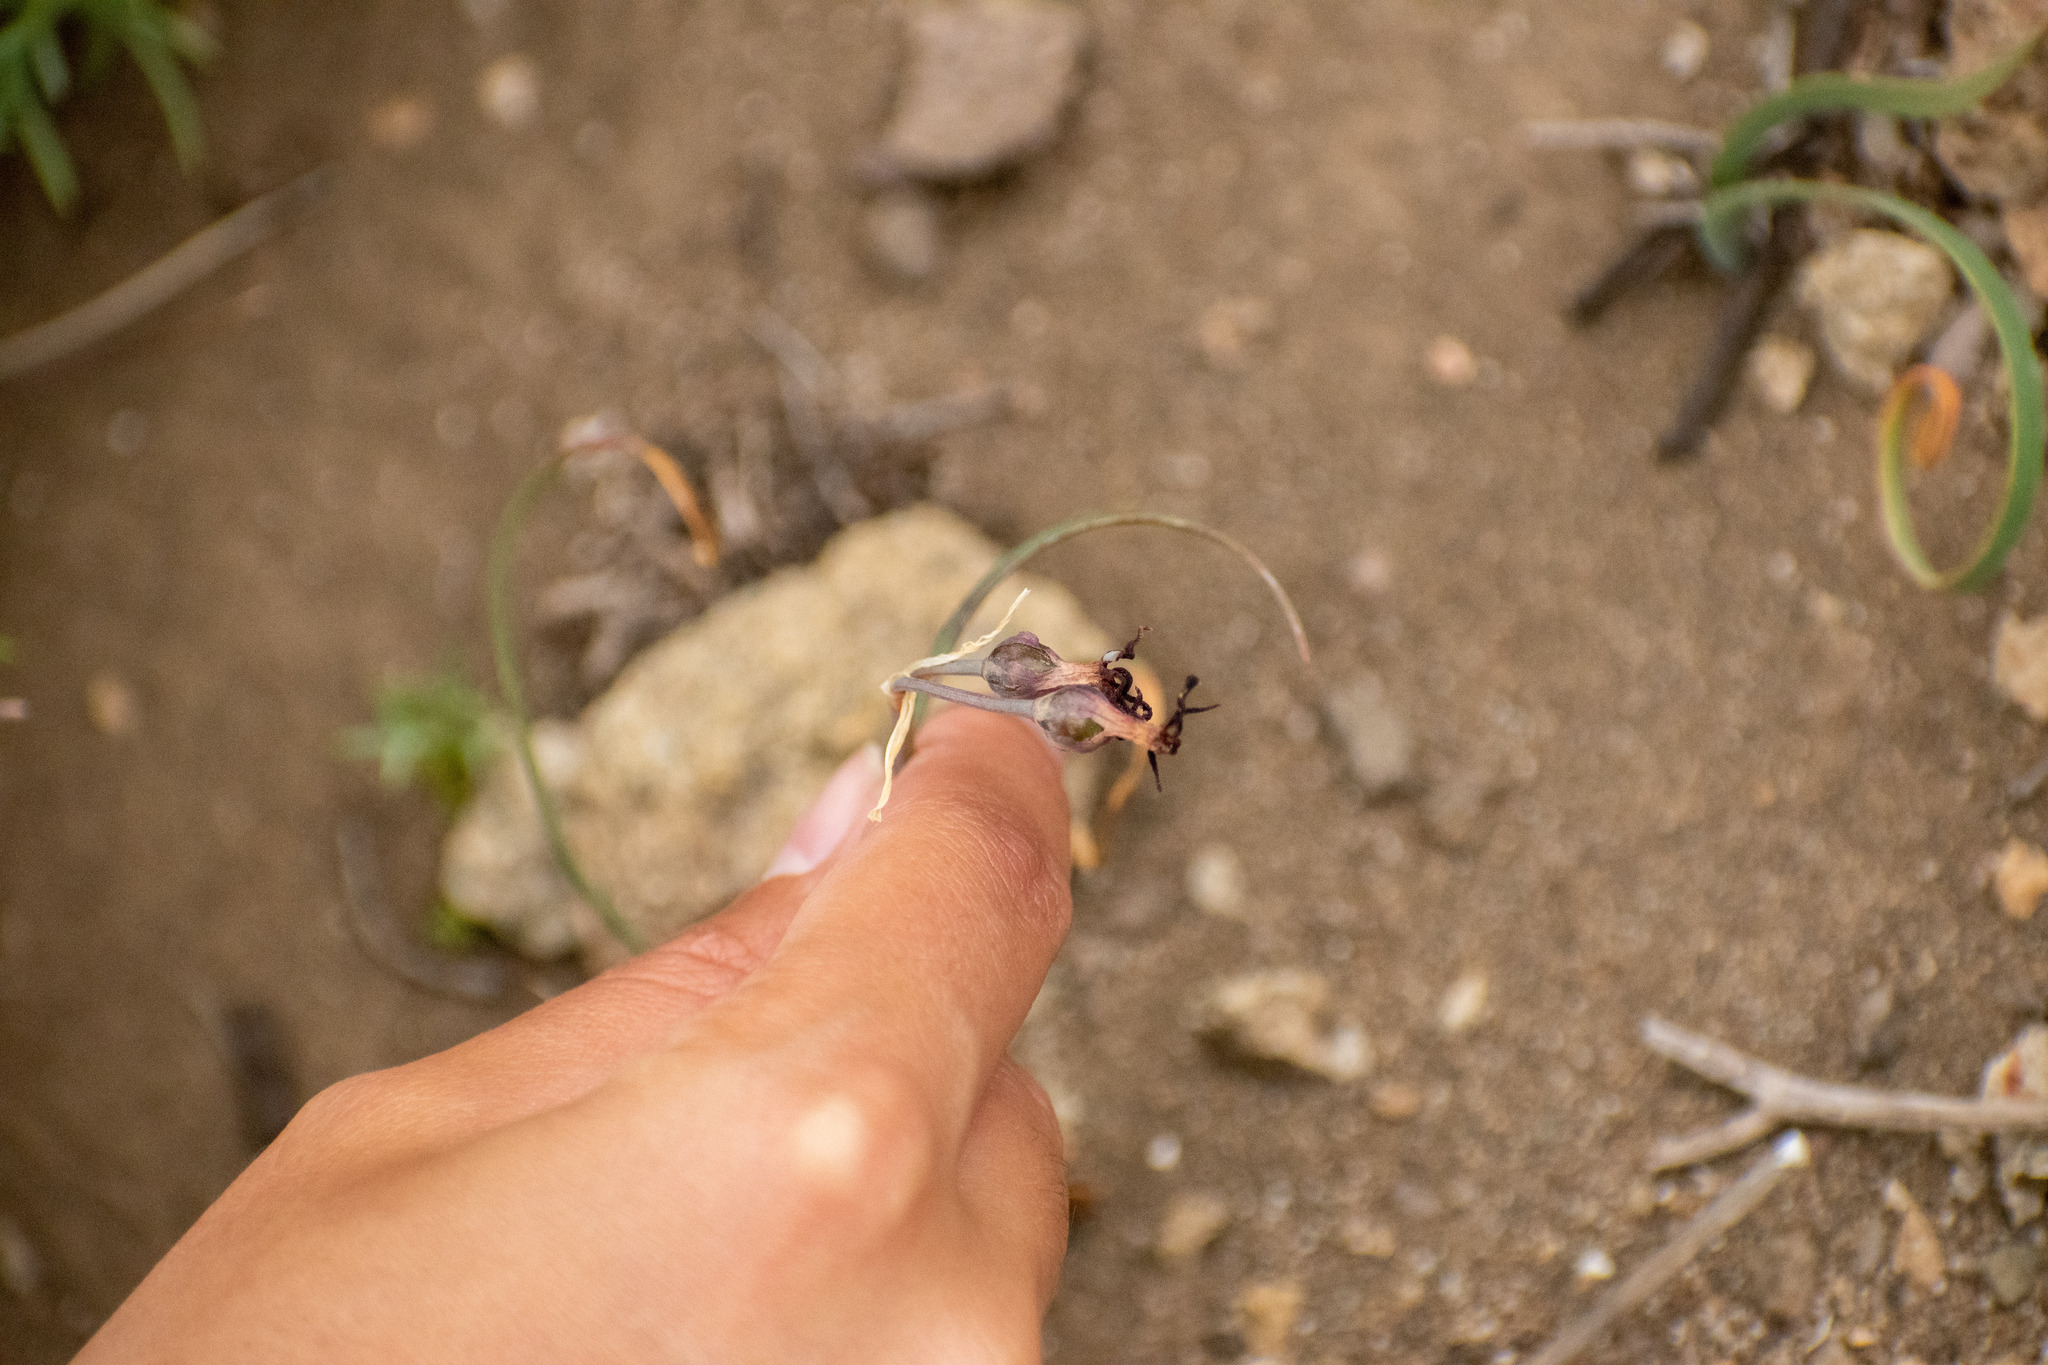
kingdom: Plantae
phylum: Tracheophyta
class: Liliopsida
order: Asparagales
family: Amaryllidaceae
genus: Tristagma
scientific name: Tristagma nivale
